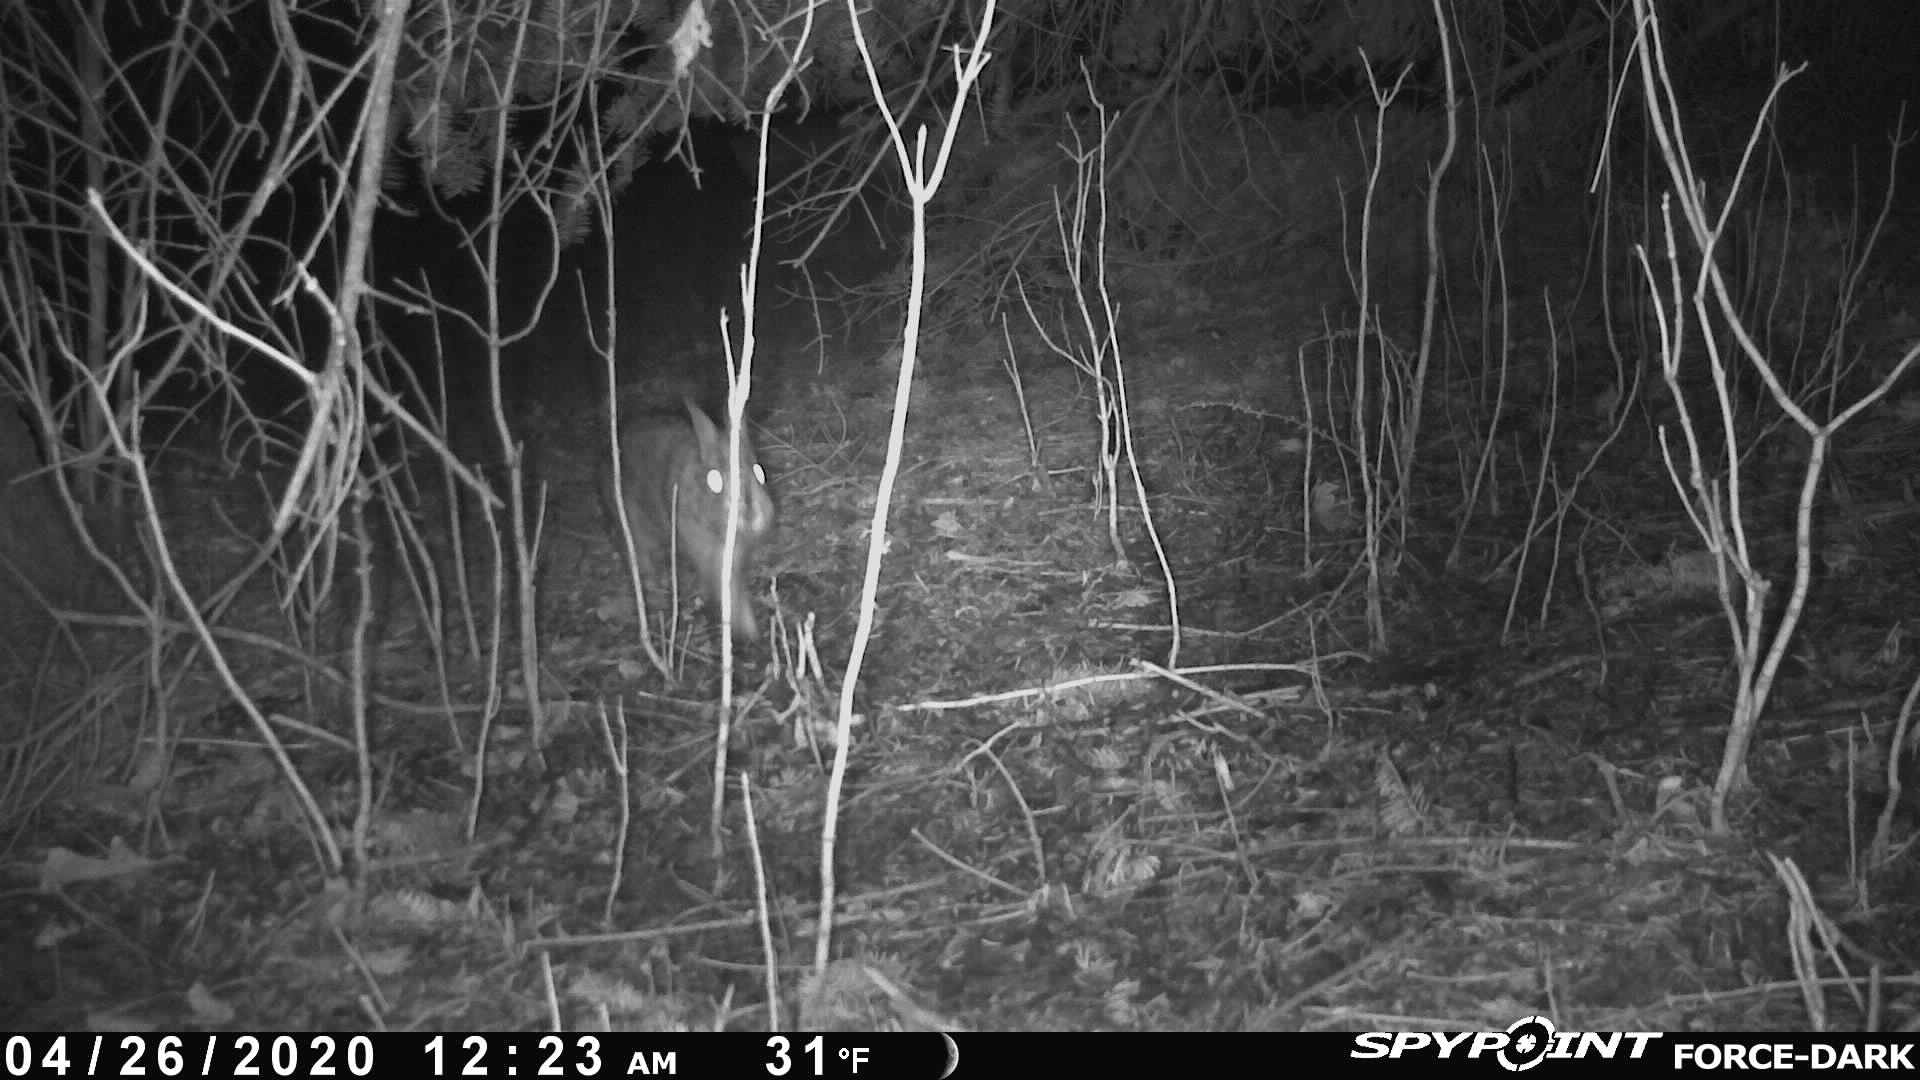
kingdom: Animalia
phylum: Chordata
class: Mammalia
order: Lagomorpha
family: Leporidae
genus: Sylvilagus
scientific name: Sylvilagus floridanus
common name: Eastern cottontail
